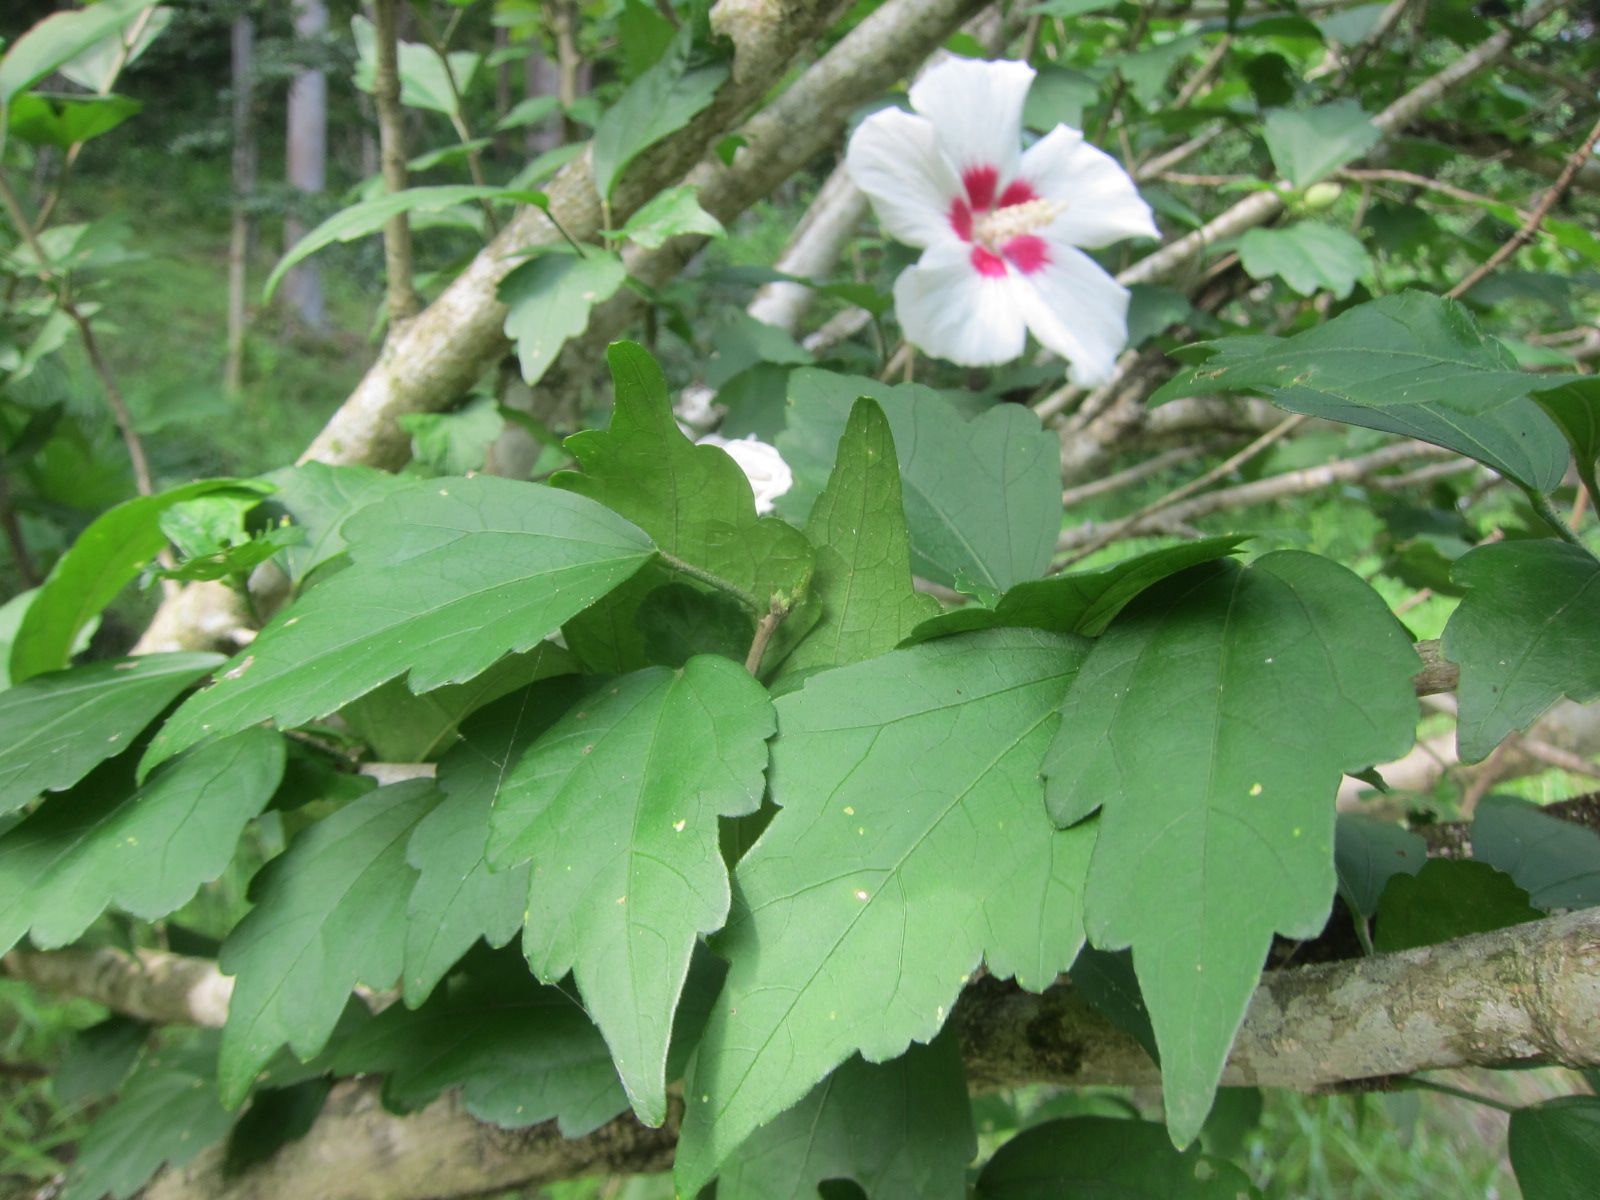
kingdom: Plantae
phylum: Tracheophyta
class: Magnoliopsida
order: Malvales
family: Malvaceae
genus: Hibiscus
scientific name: Hibiscus syriacus
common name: Syrian ketmia
